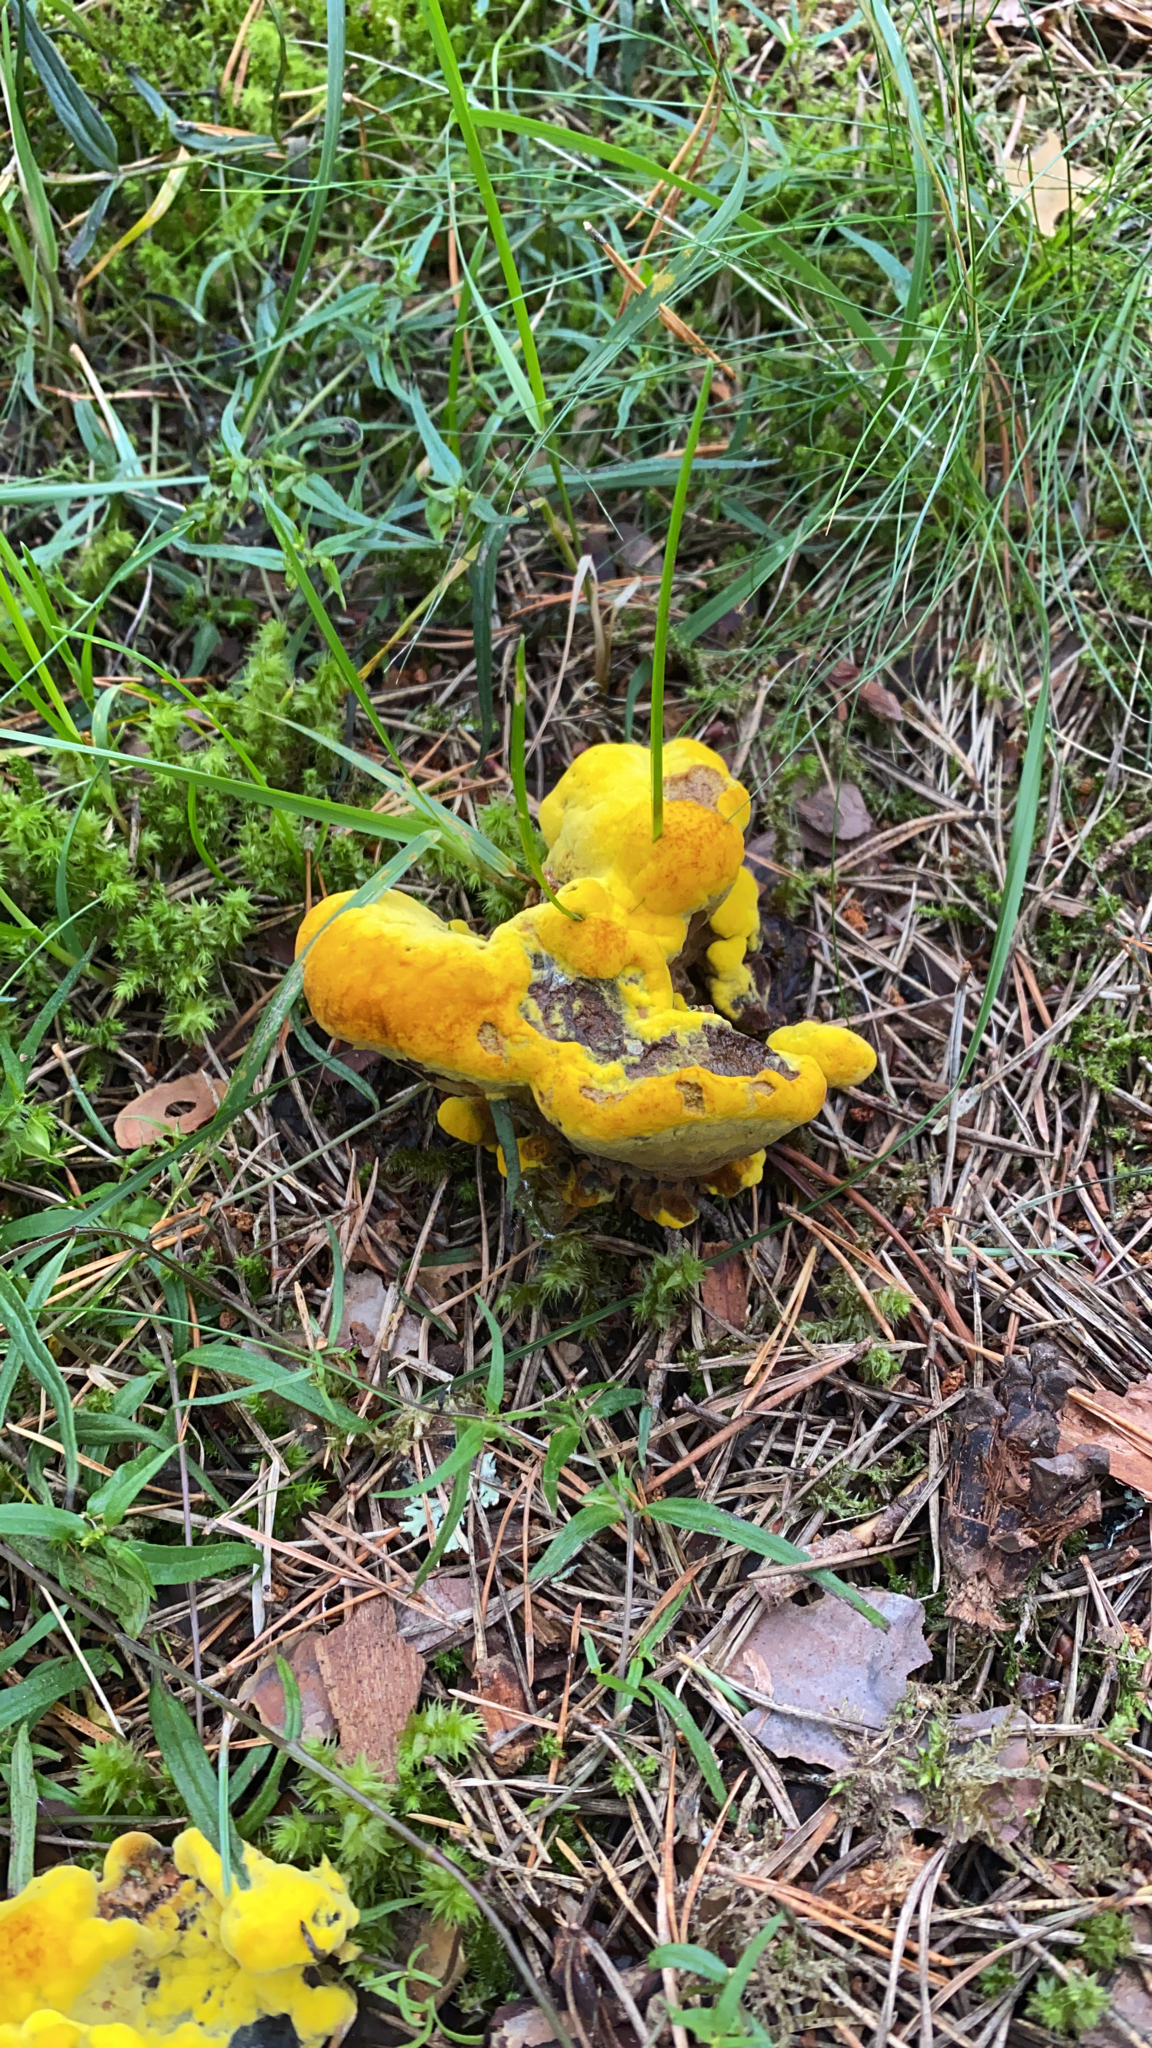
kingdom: Fungi
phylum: Basidiomycota
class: Agaricomycetes
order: Polyporales
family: Laetiporaceae
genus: Phaeolus
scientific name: Phaeolus schweinitzii
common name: Dyer's mazegill
